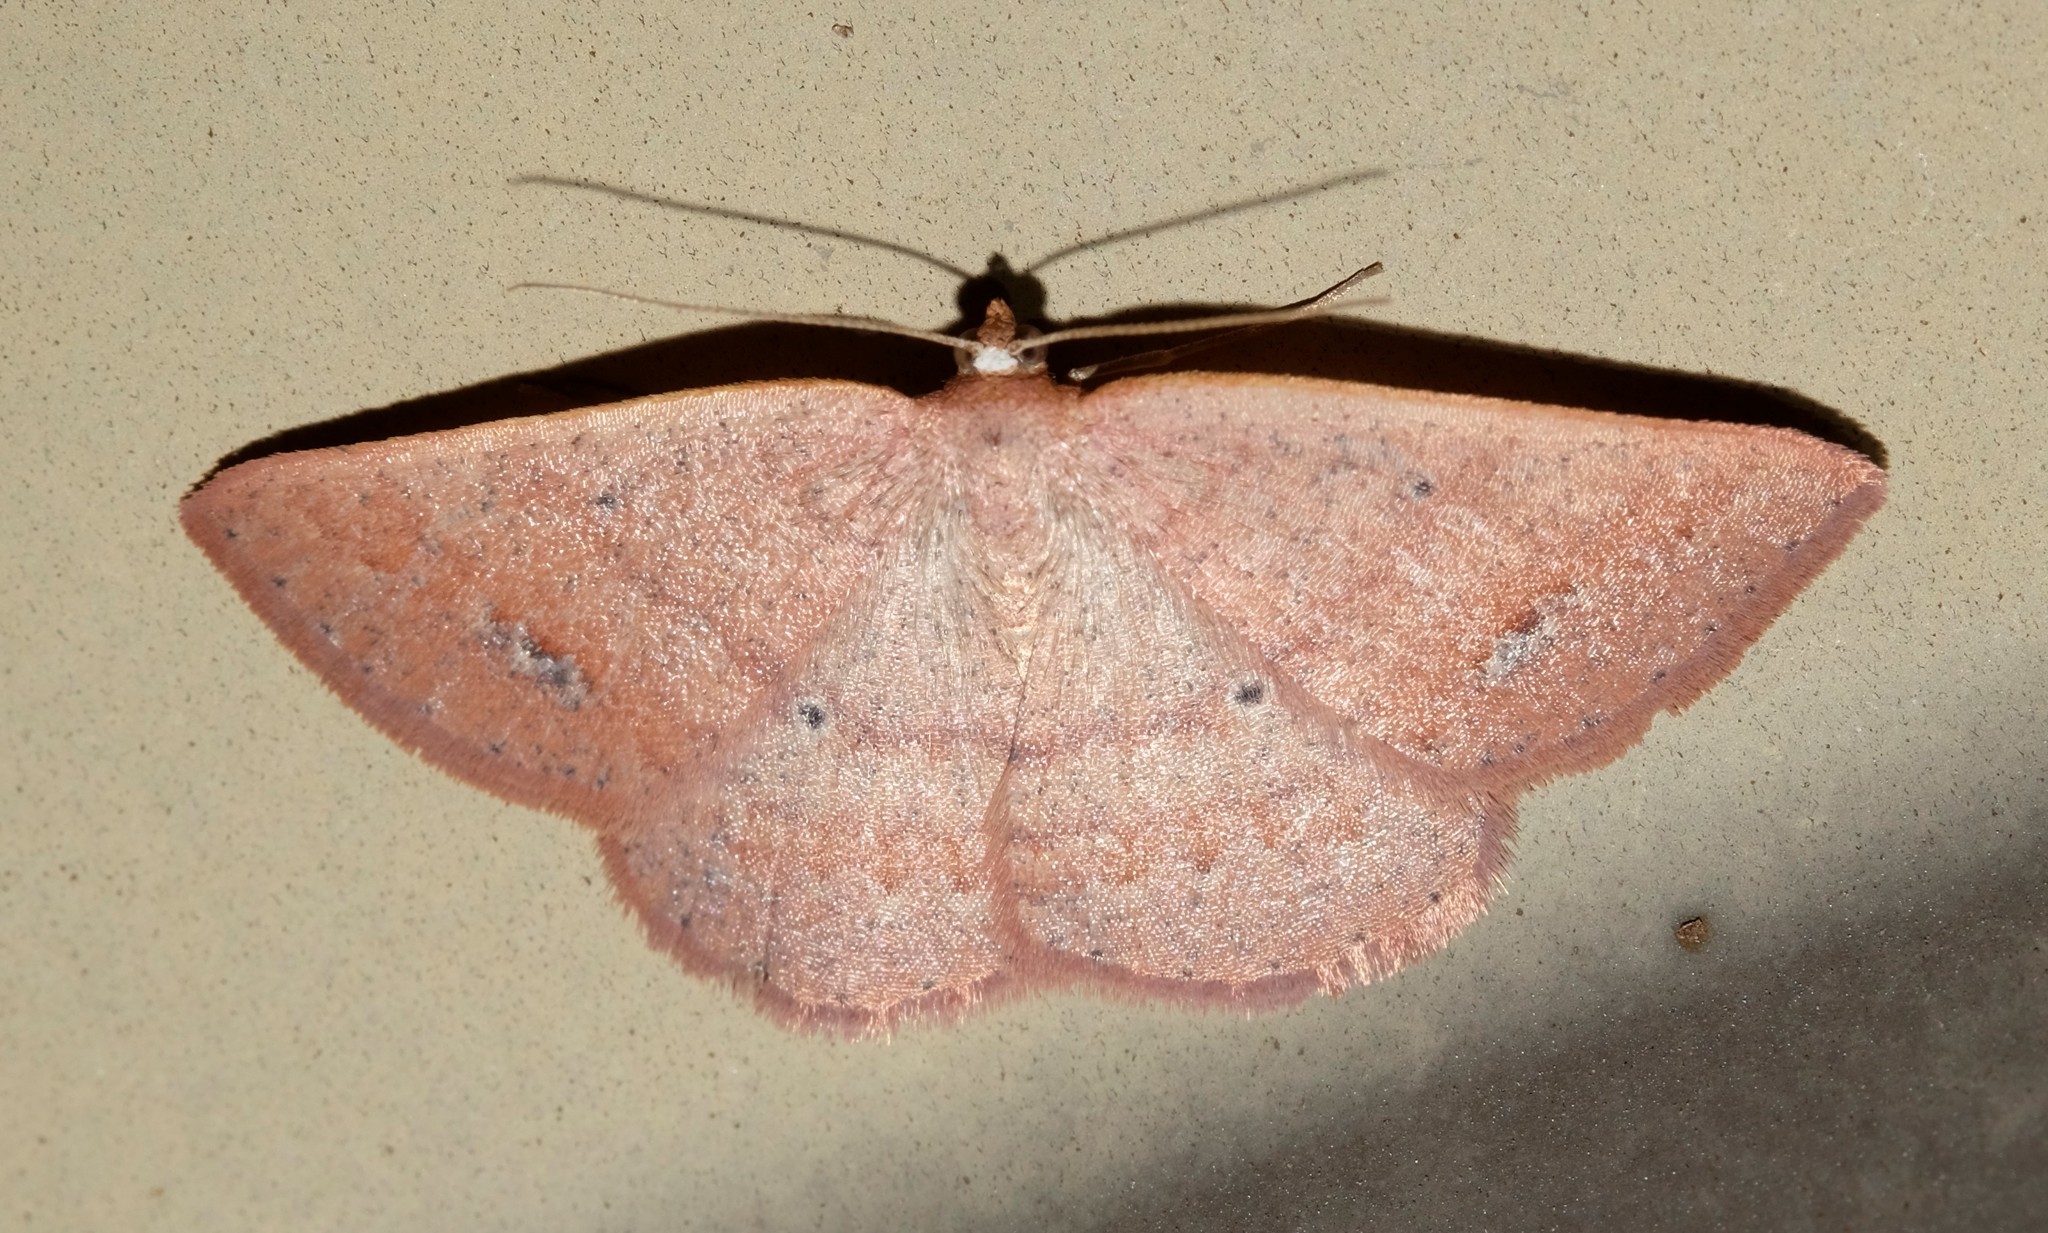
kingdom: Animalia
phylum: Arthropoda
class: Insecta
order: Lepidoptera
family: Geometridae
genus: Casbia
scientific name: Casbia oenias
